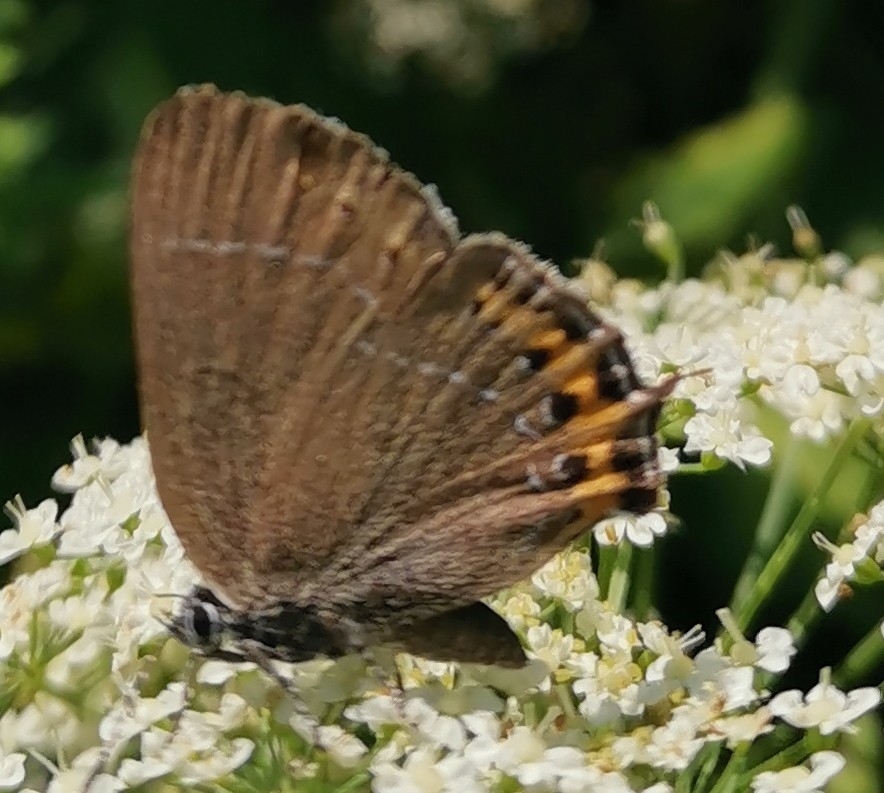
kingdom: Animalia
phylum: Arthropoda
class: Insecta
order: Lepidoptera
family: Lycaenidae
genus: Fixsenia
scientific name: Fixsenia pruni
